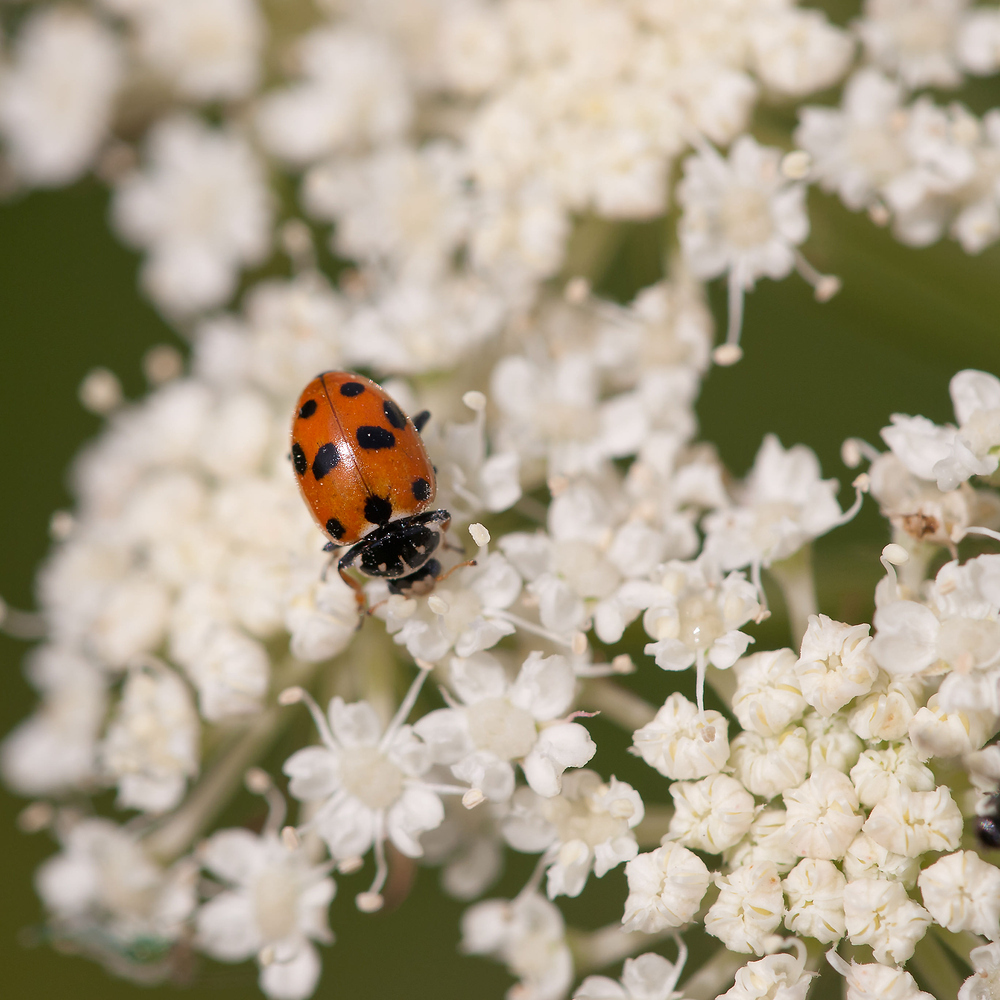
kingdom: Animalia
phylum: Arthropoda
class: Insecta
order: Coleoptera
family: Coccinellidae
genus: Hippodamia
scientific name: Hippodamia variegata
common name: Ladybird beetle
